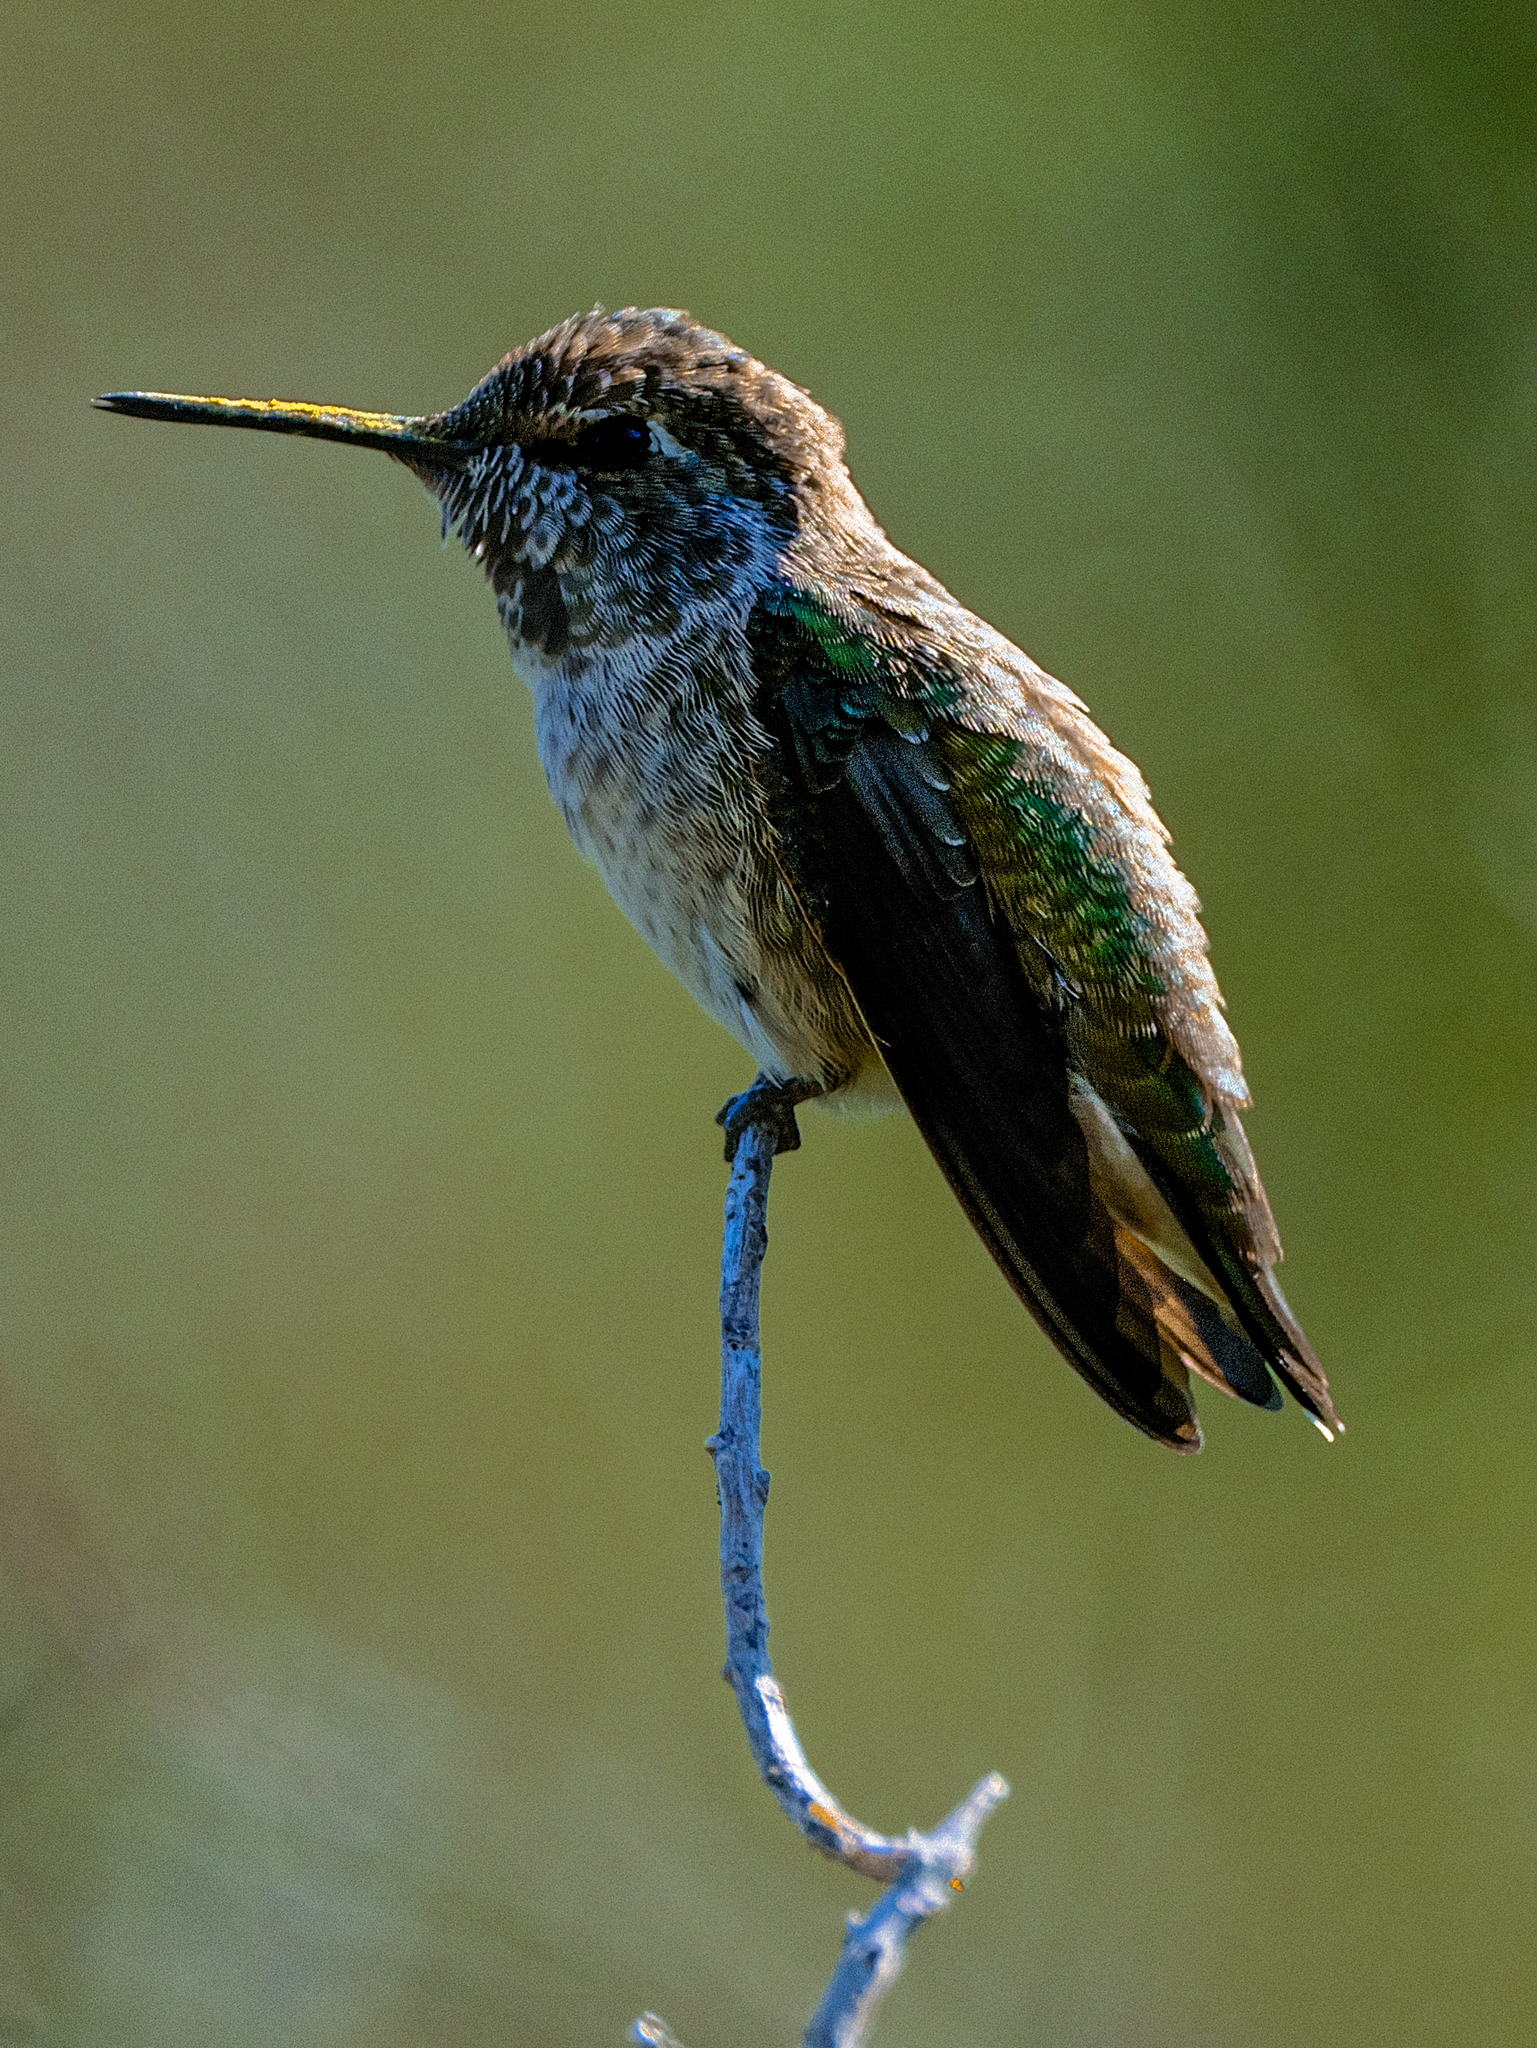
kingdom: Animalia
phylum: Chordata
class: Aves
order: Apodiformes
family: Trochilidae
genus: Calypte
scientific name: Calypte anna
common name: Anna's hummingbird
